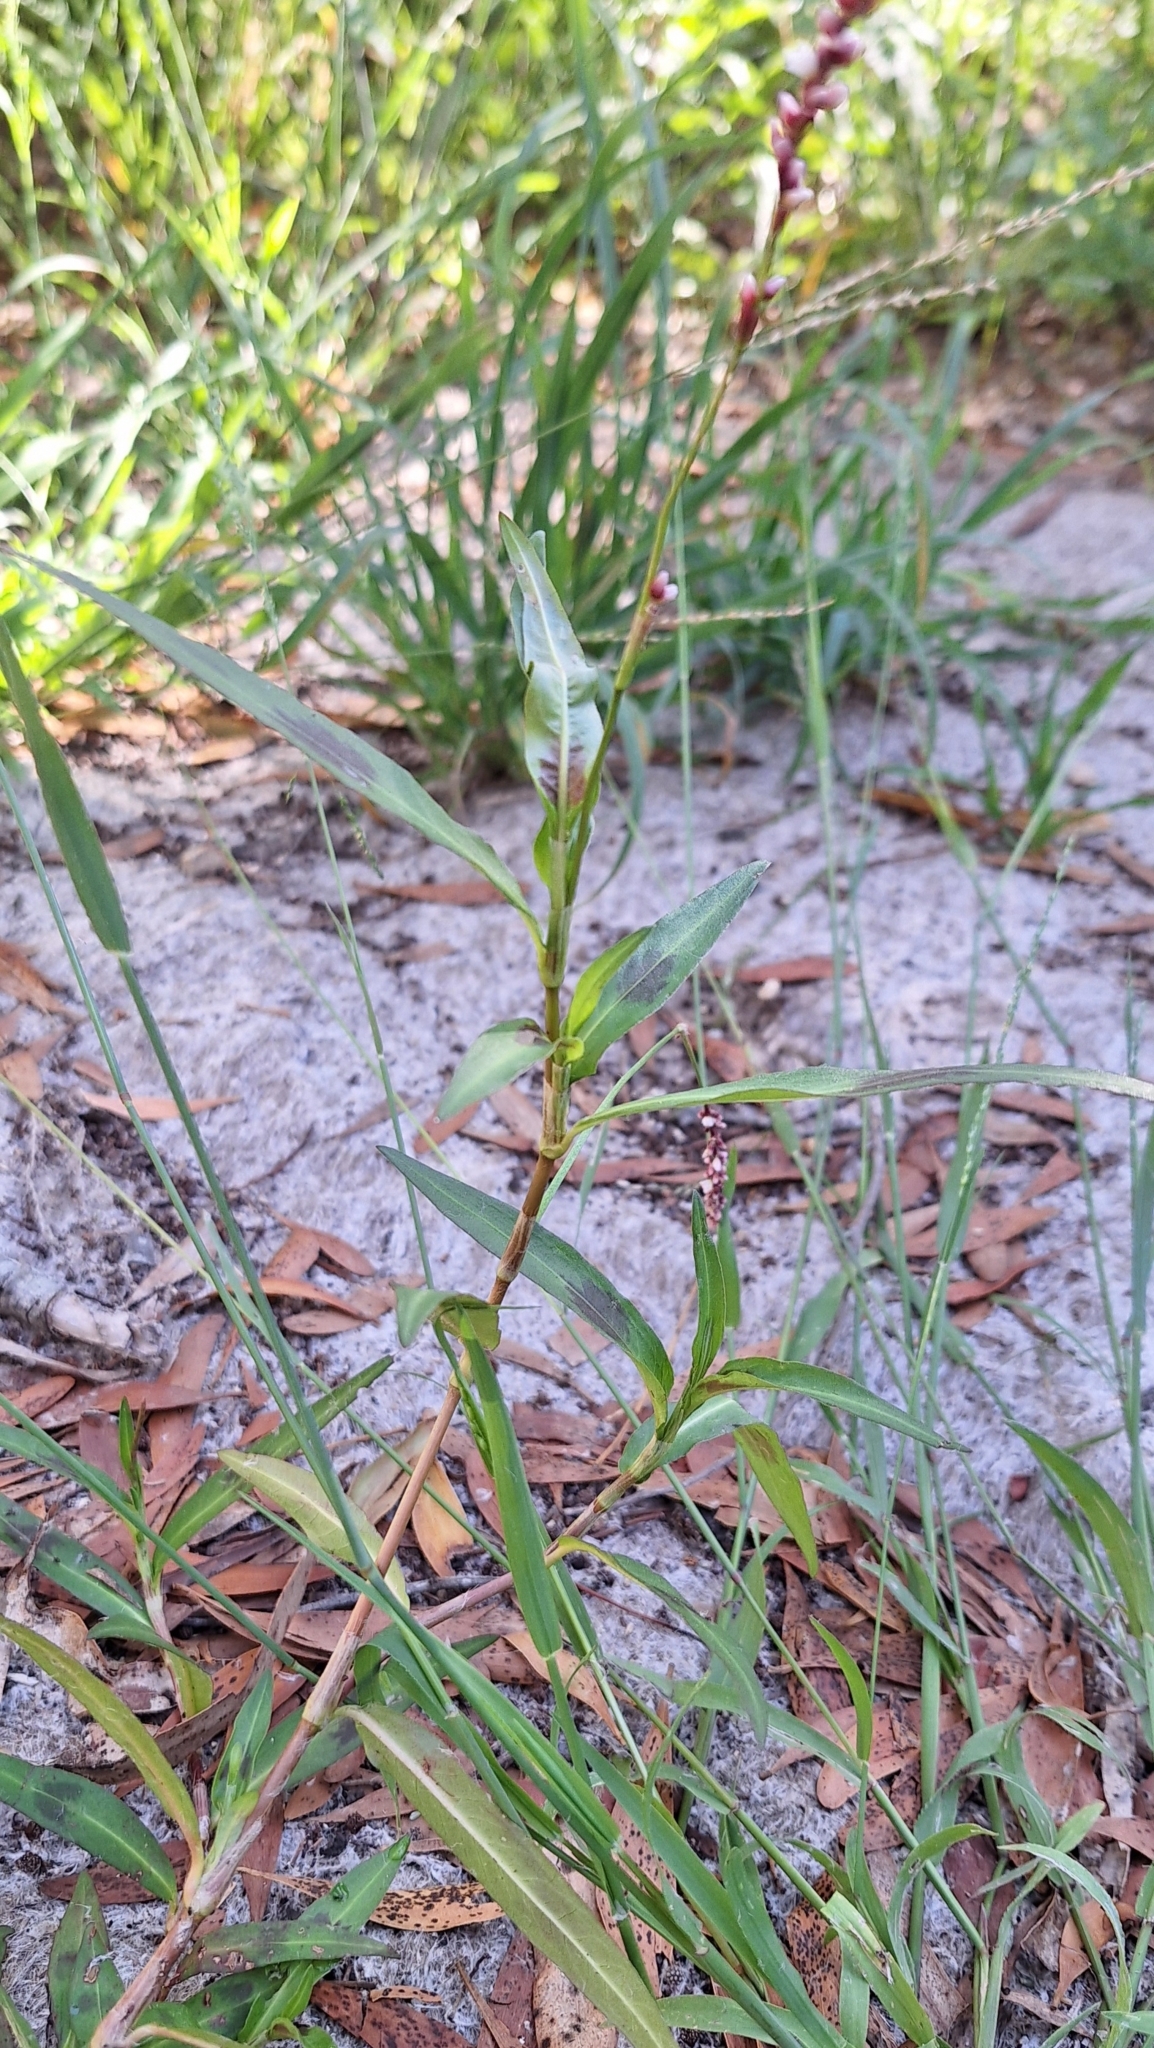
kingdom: Plantae
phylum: Tracheophyta
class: Magnoliopsida
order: Caryophyllales
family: Polygonaceae
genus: Persicaria
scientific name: Persicaria decipiens
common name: Willow-weed
